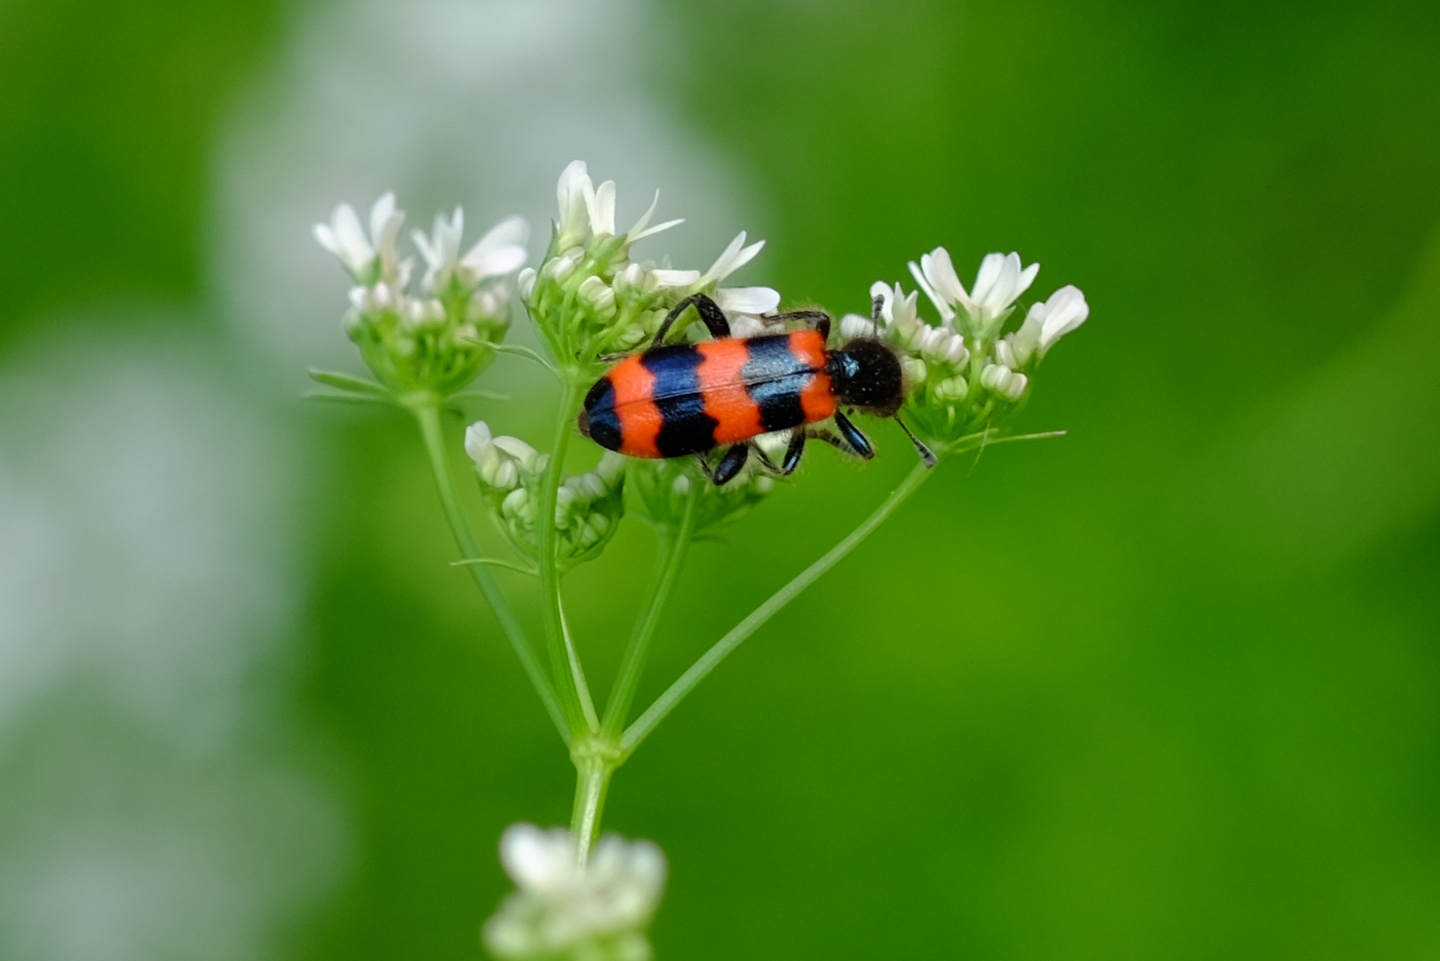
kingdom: Animalia
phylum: Arthropoda
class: Insecta
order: Coleoptera
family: Cleridae
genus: Trichodes
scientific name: Trichodes apiarius
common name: Bee-eating beetle
